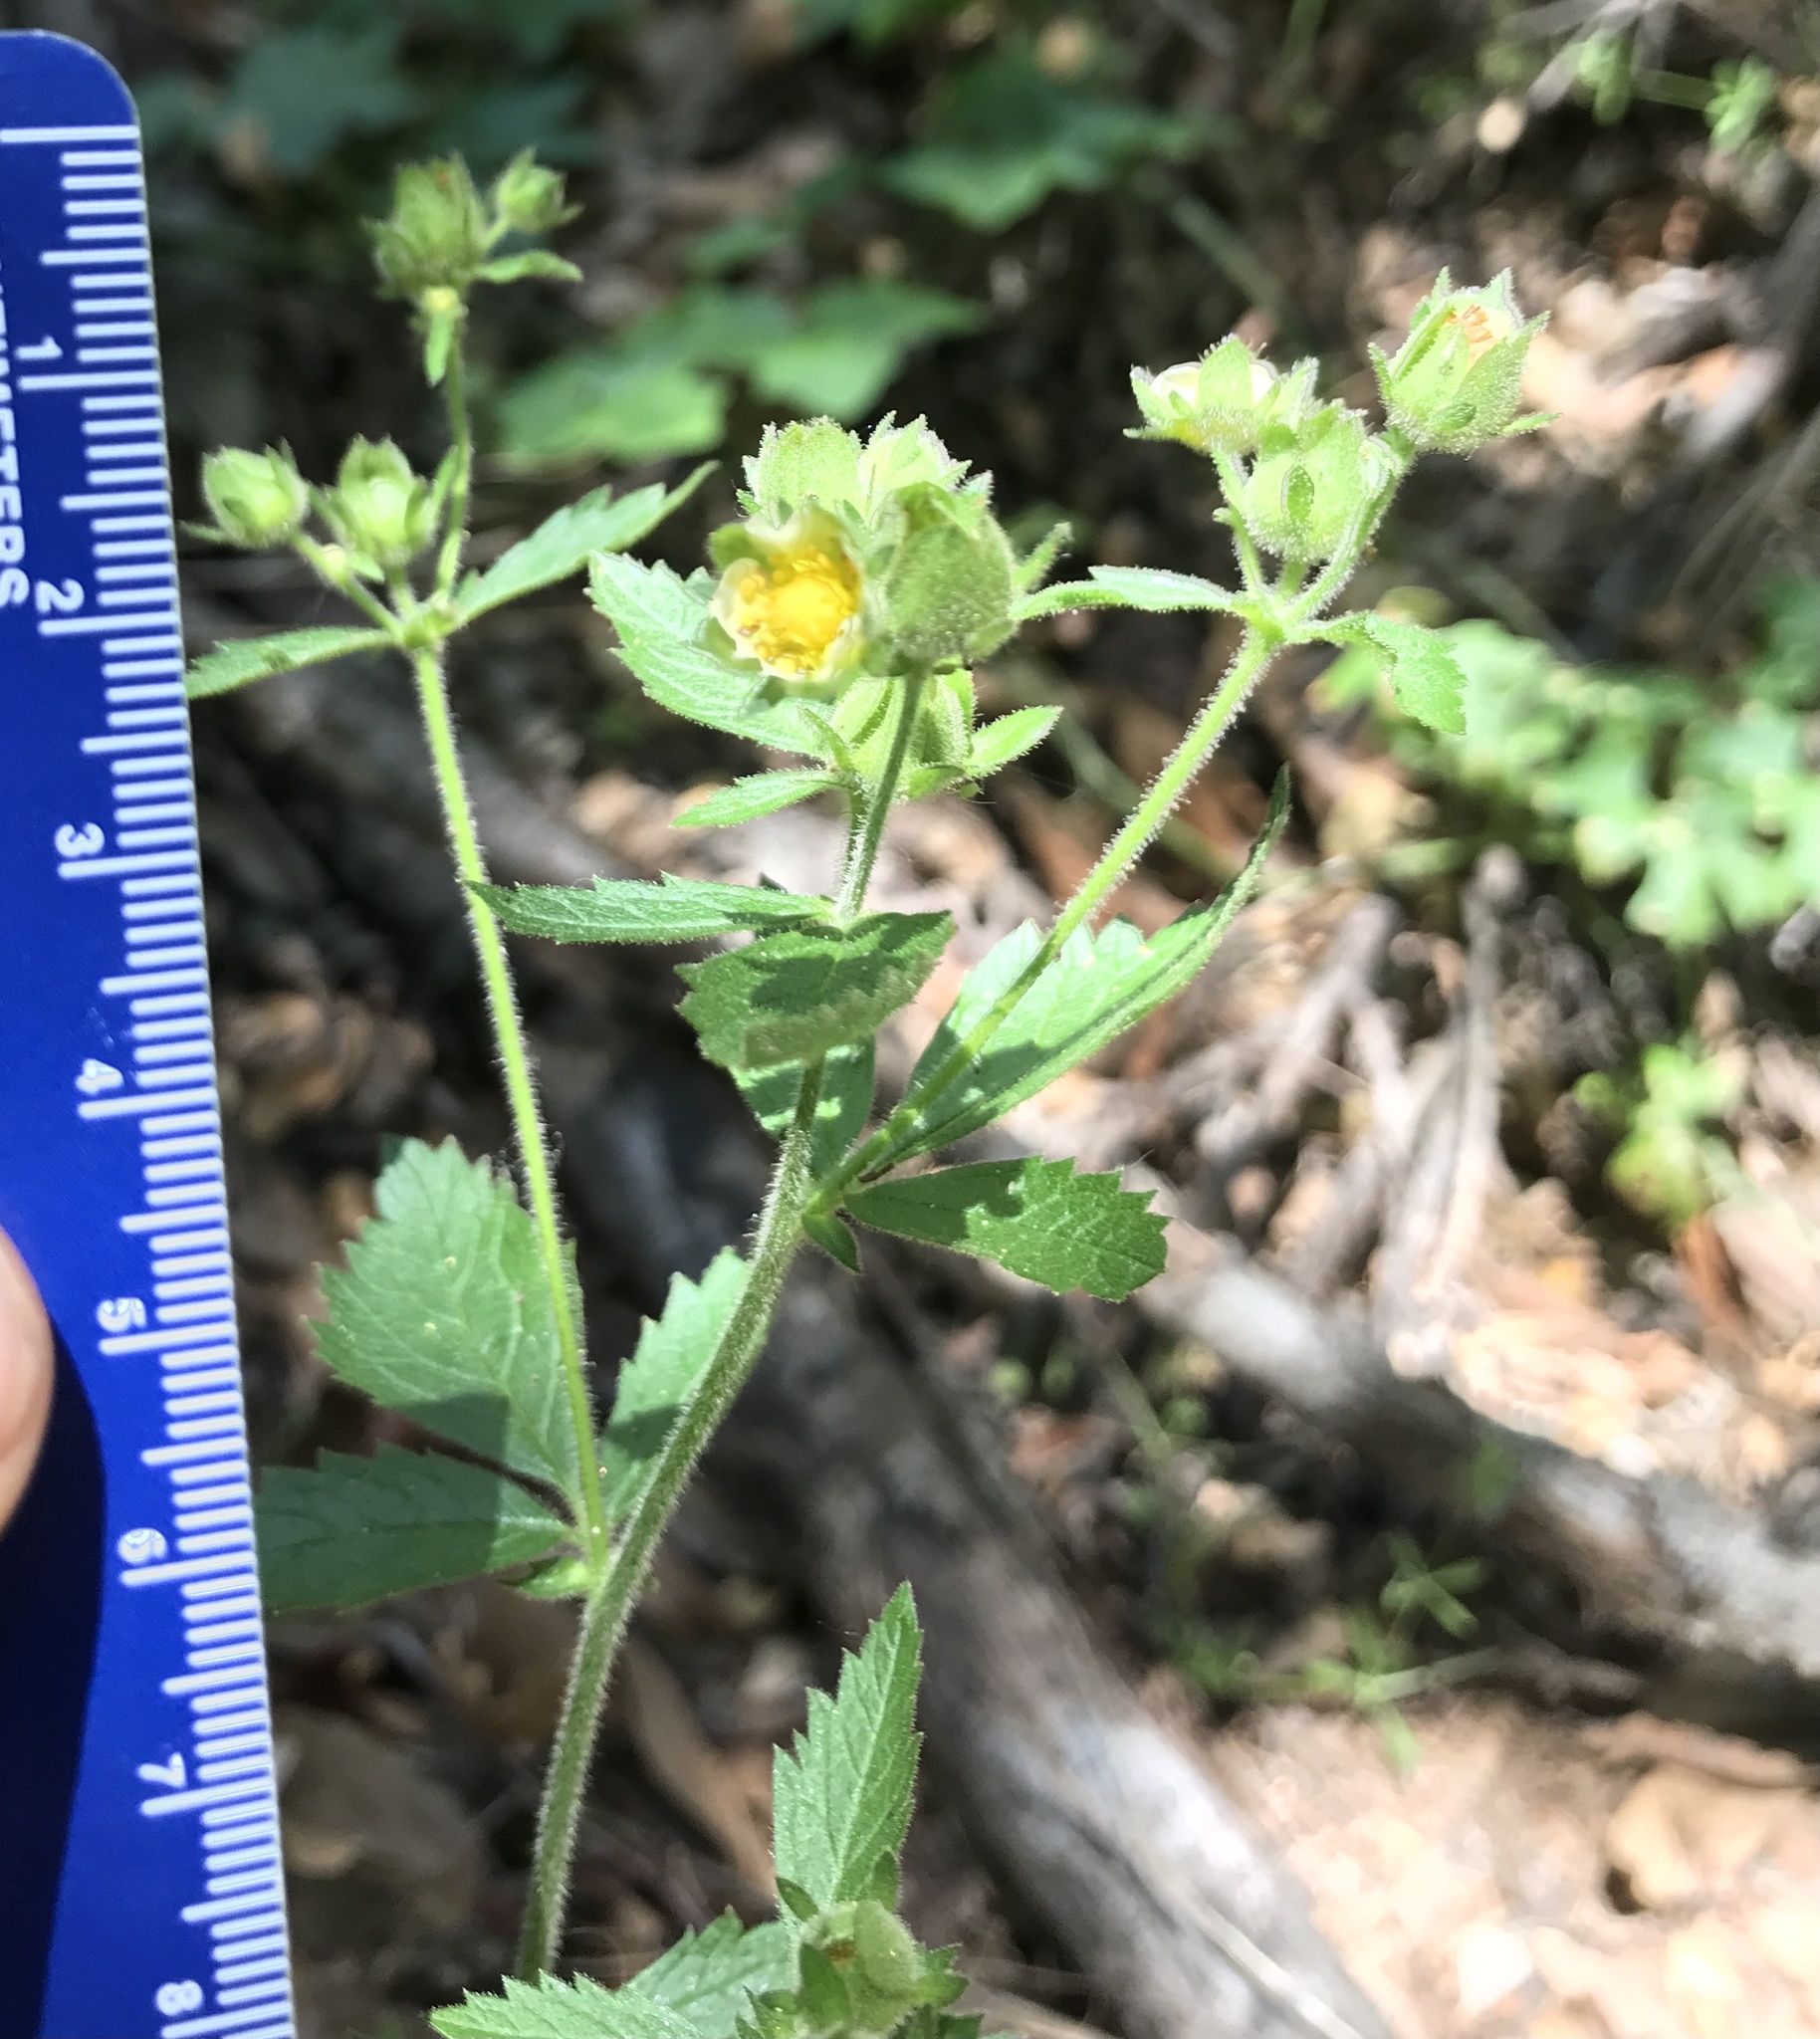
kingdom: Plantae
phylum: Tracheophyta
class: Magnoliopsida
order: Rosales
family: Rosaceae
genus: Drymocallis
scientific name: Drymocallis glandulosa
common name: Sticky cinquefoil
